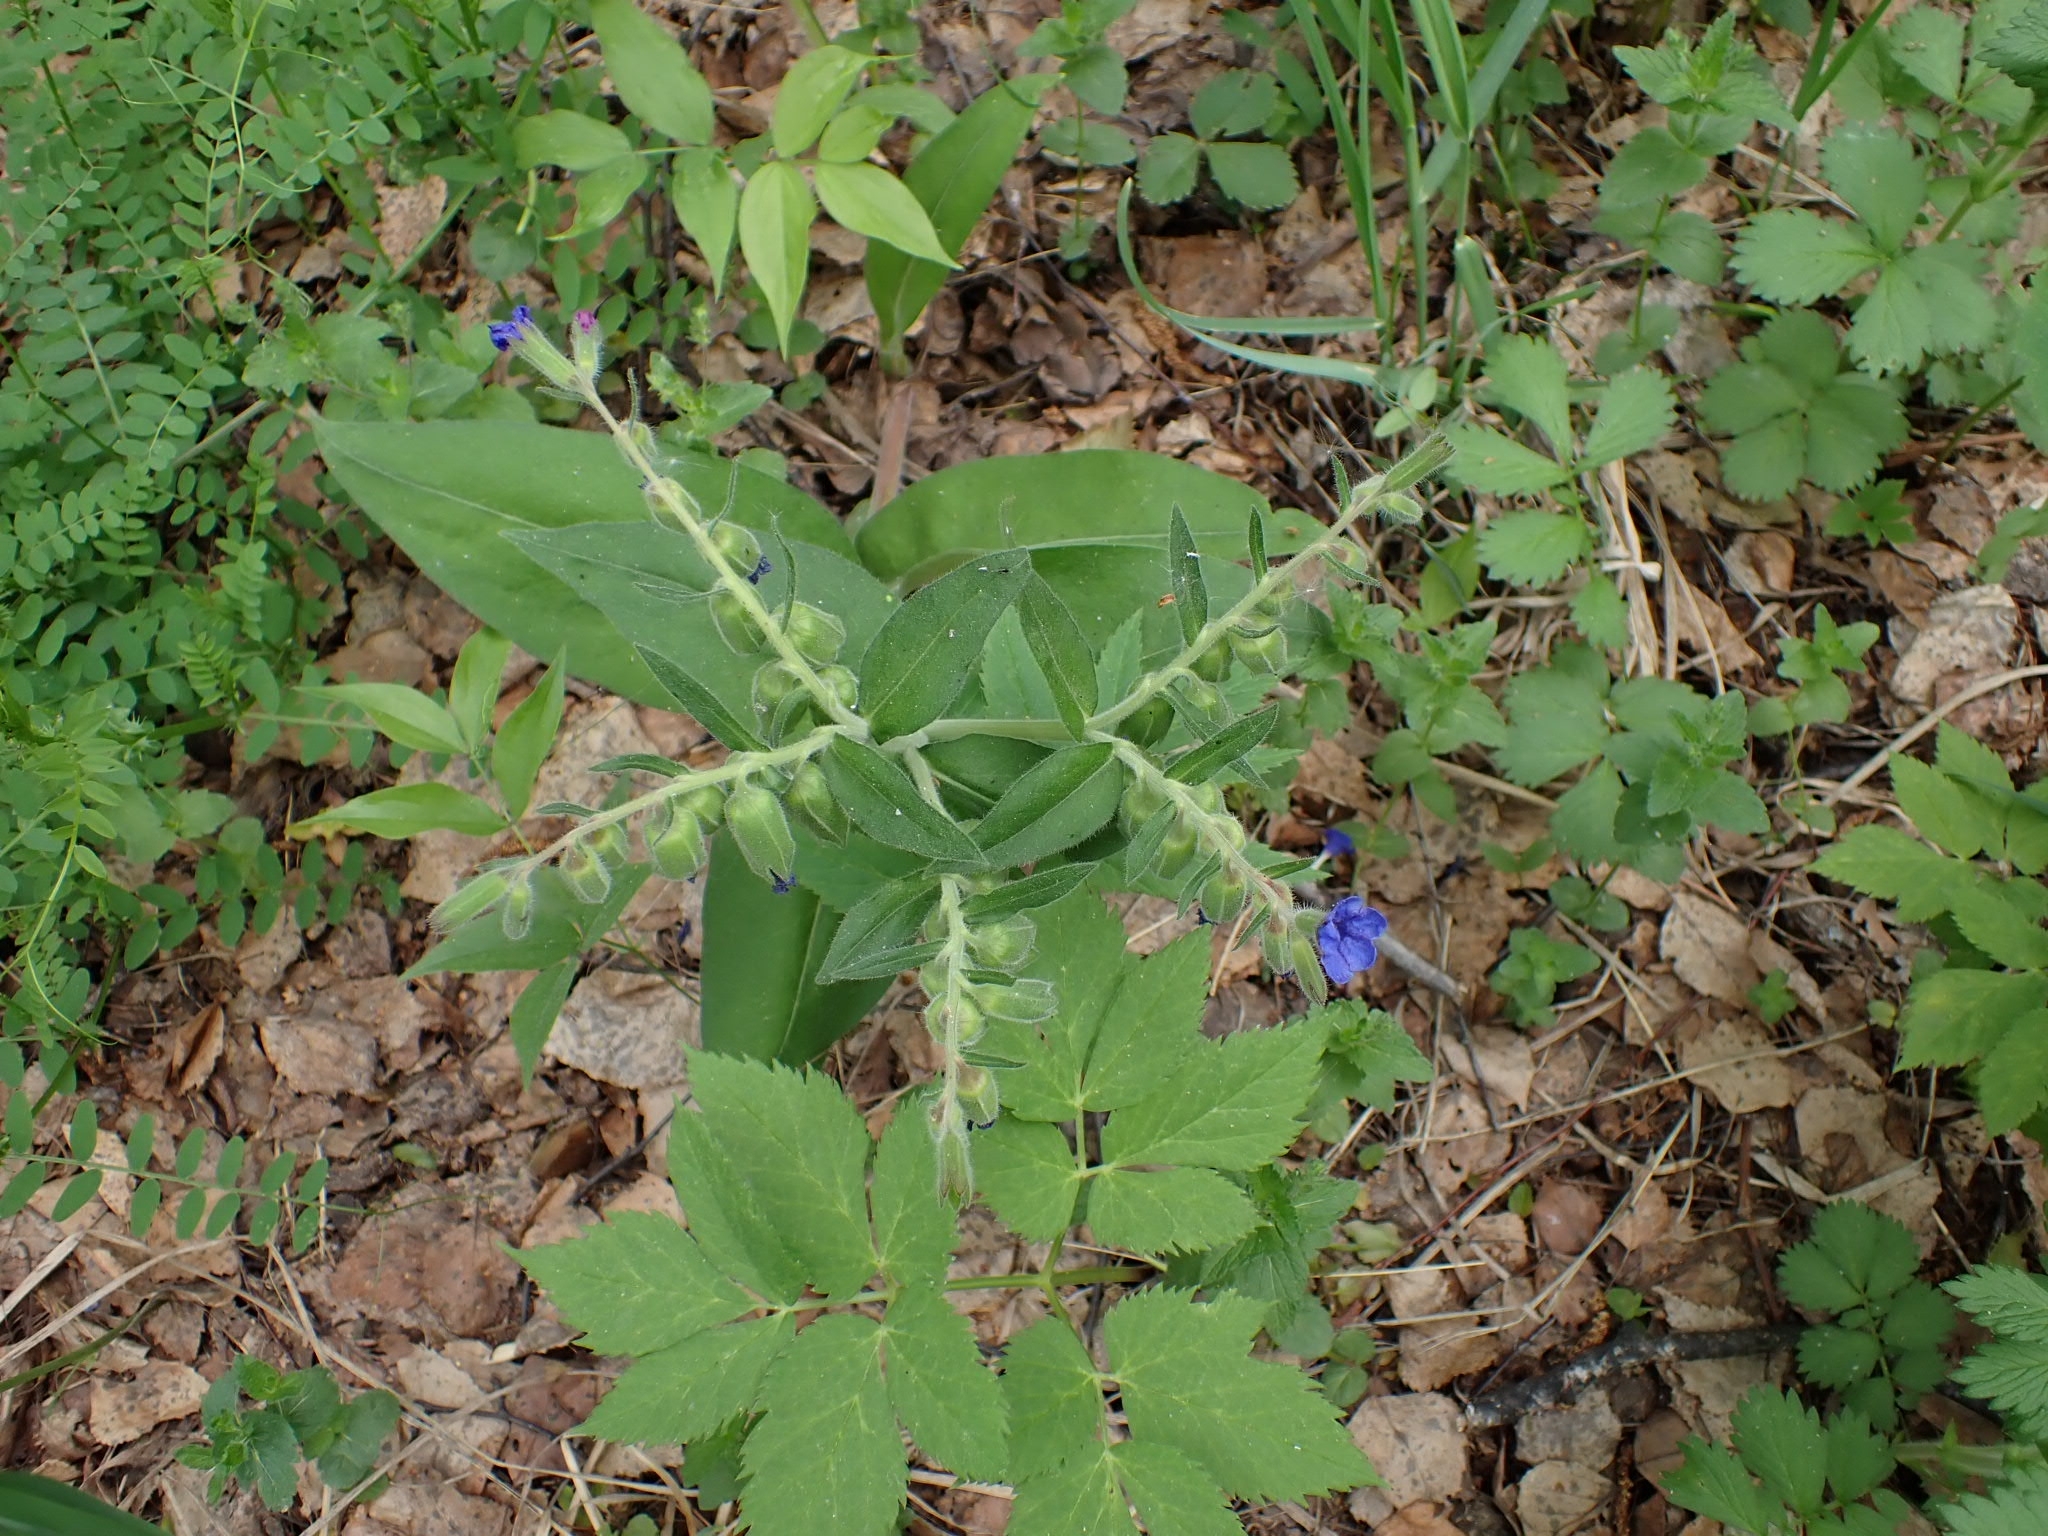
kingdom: Plantae
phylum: Tracheophyta
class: Magnoliopsida
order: Boraginales
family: Boraginaceae
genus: Pulmonaria
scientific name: Pulmonaria mollis
